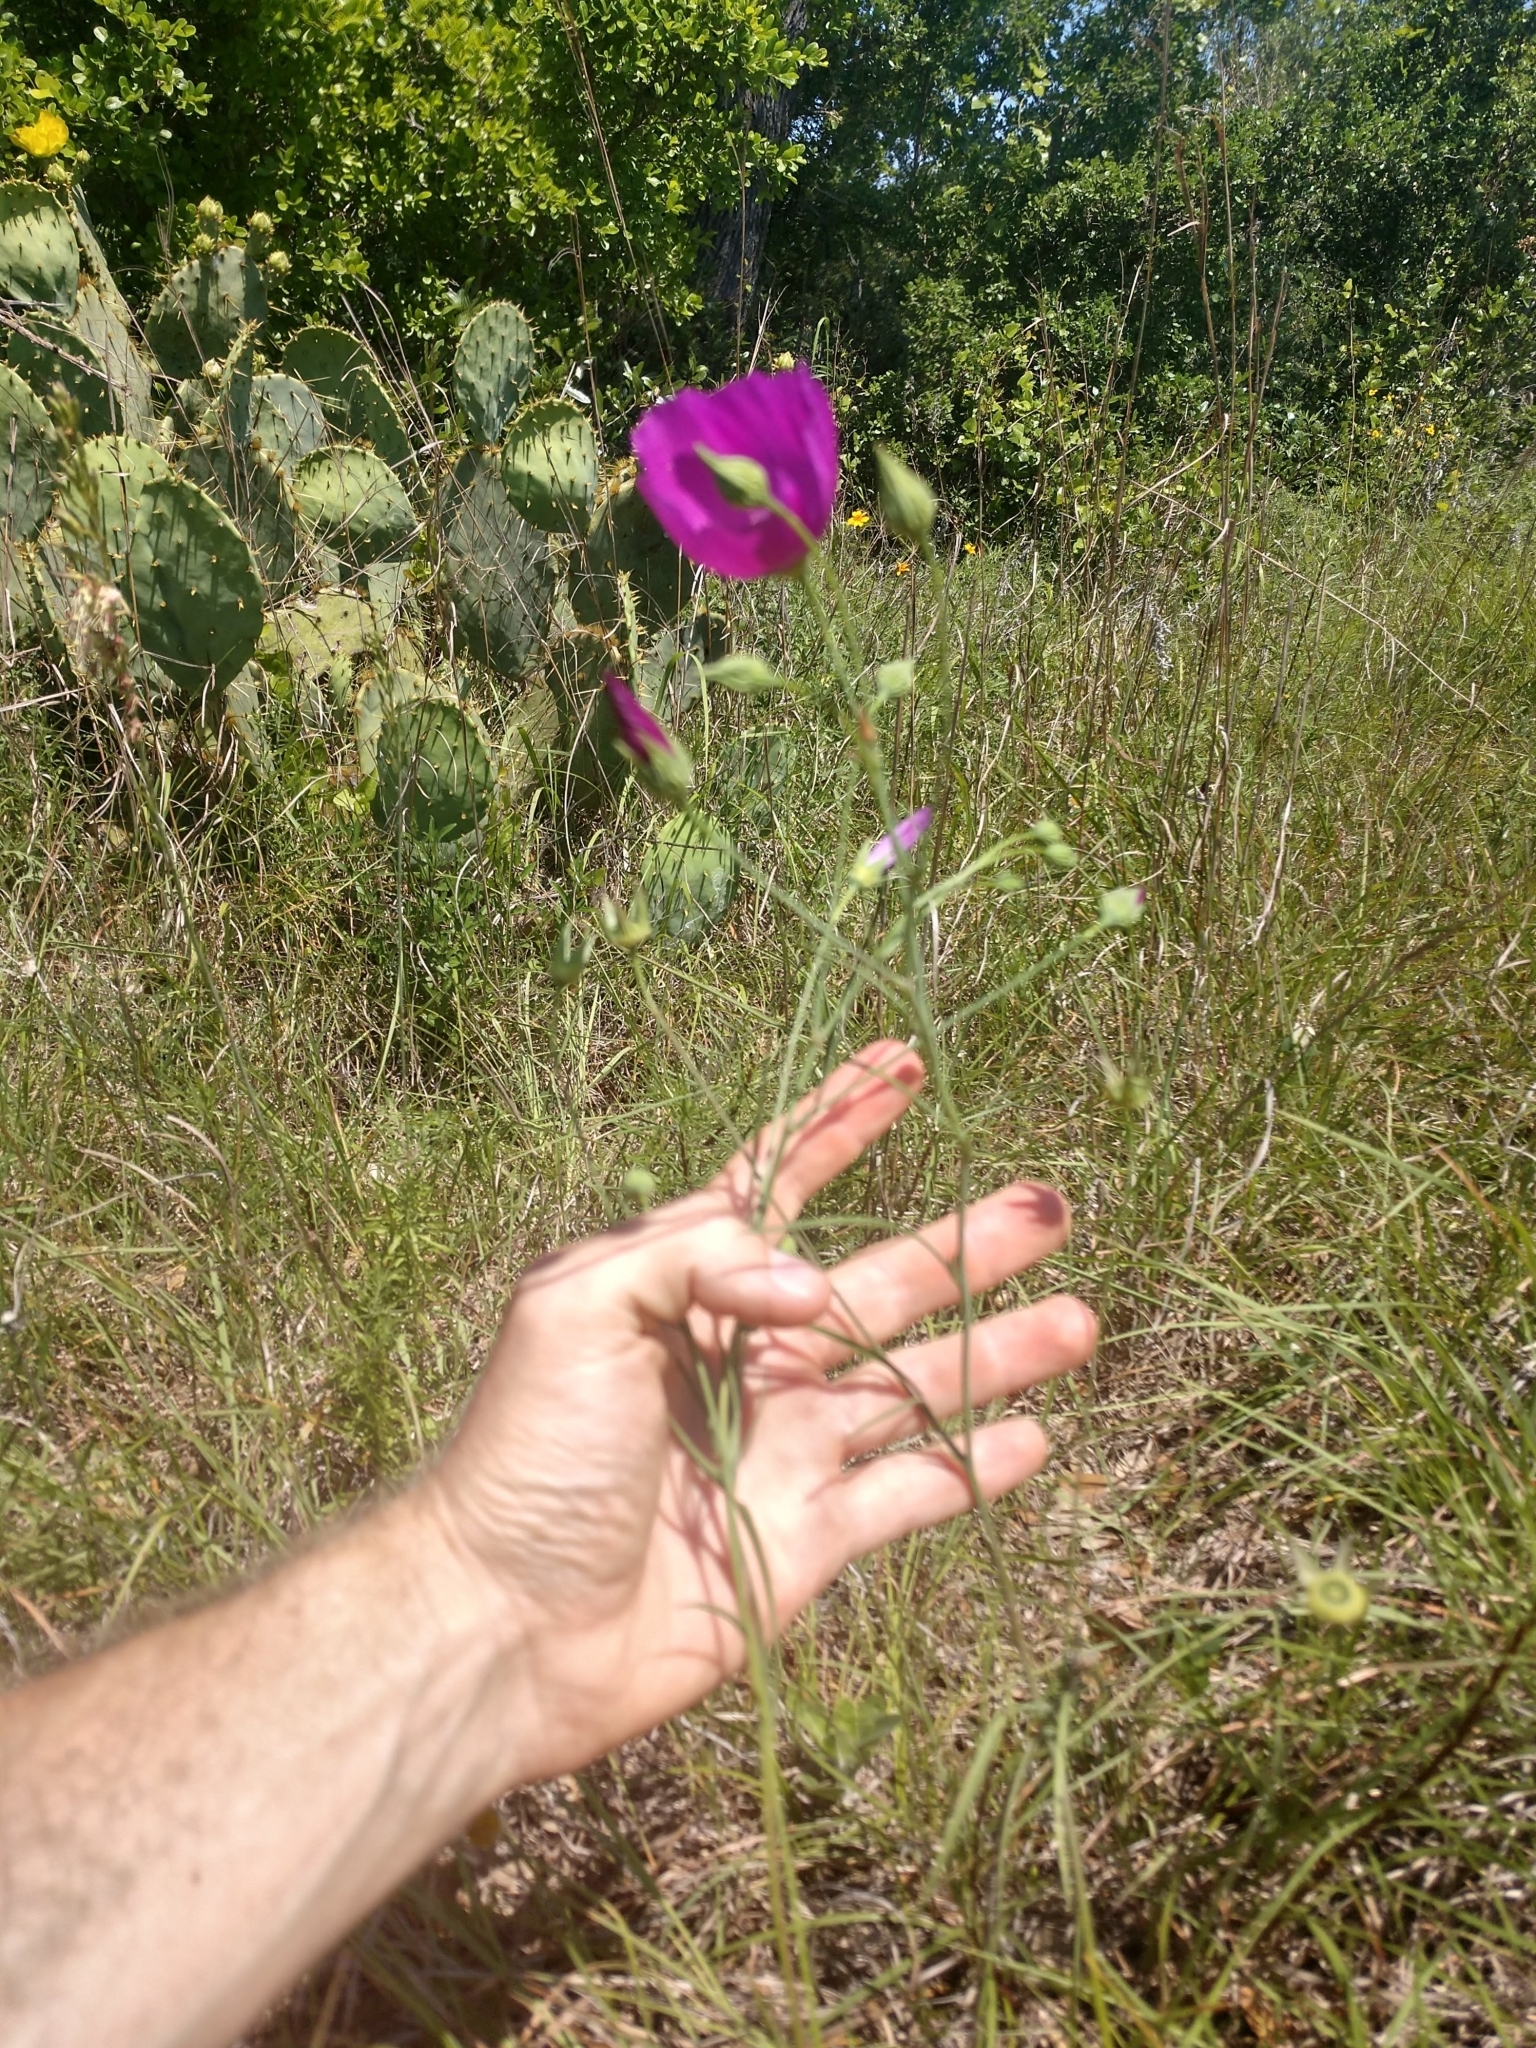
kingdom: Plantae
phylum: Tracheophyta
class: Magnoliopsida
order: Malvales
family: Malvaceae
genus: Callirhoe
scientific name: Callirhoe pedata
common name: Finger poppy-mallow
